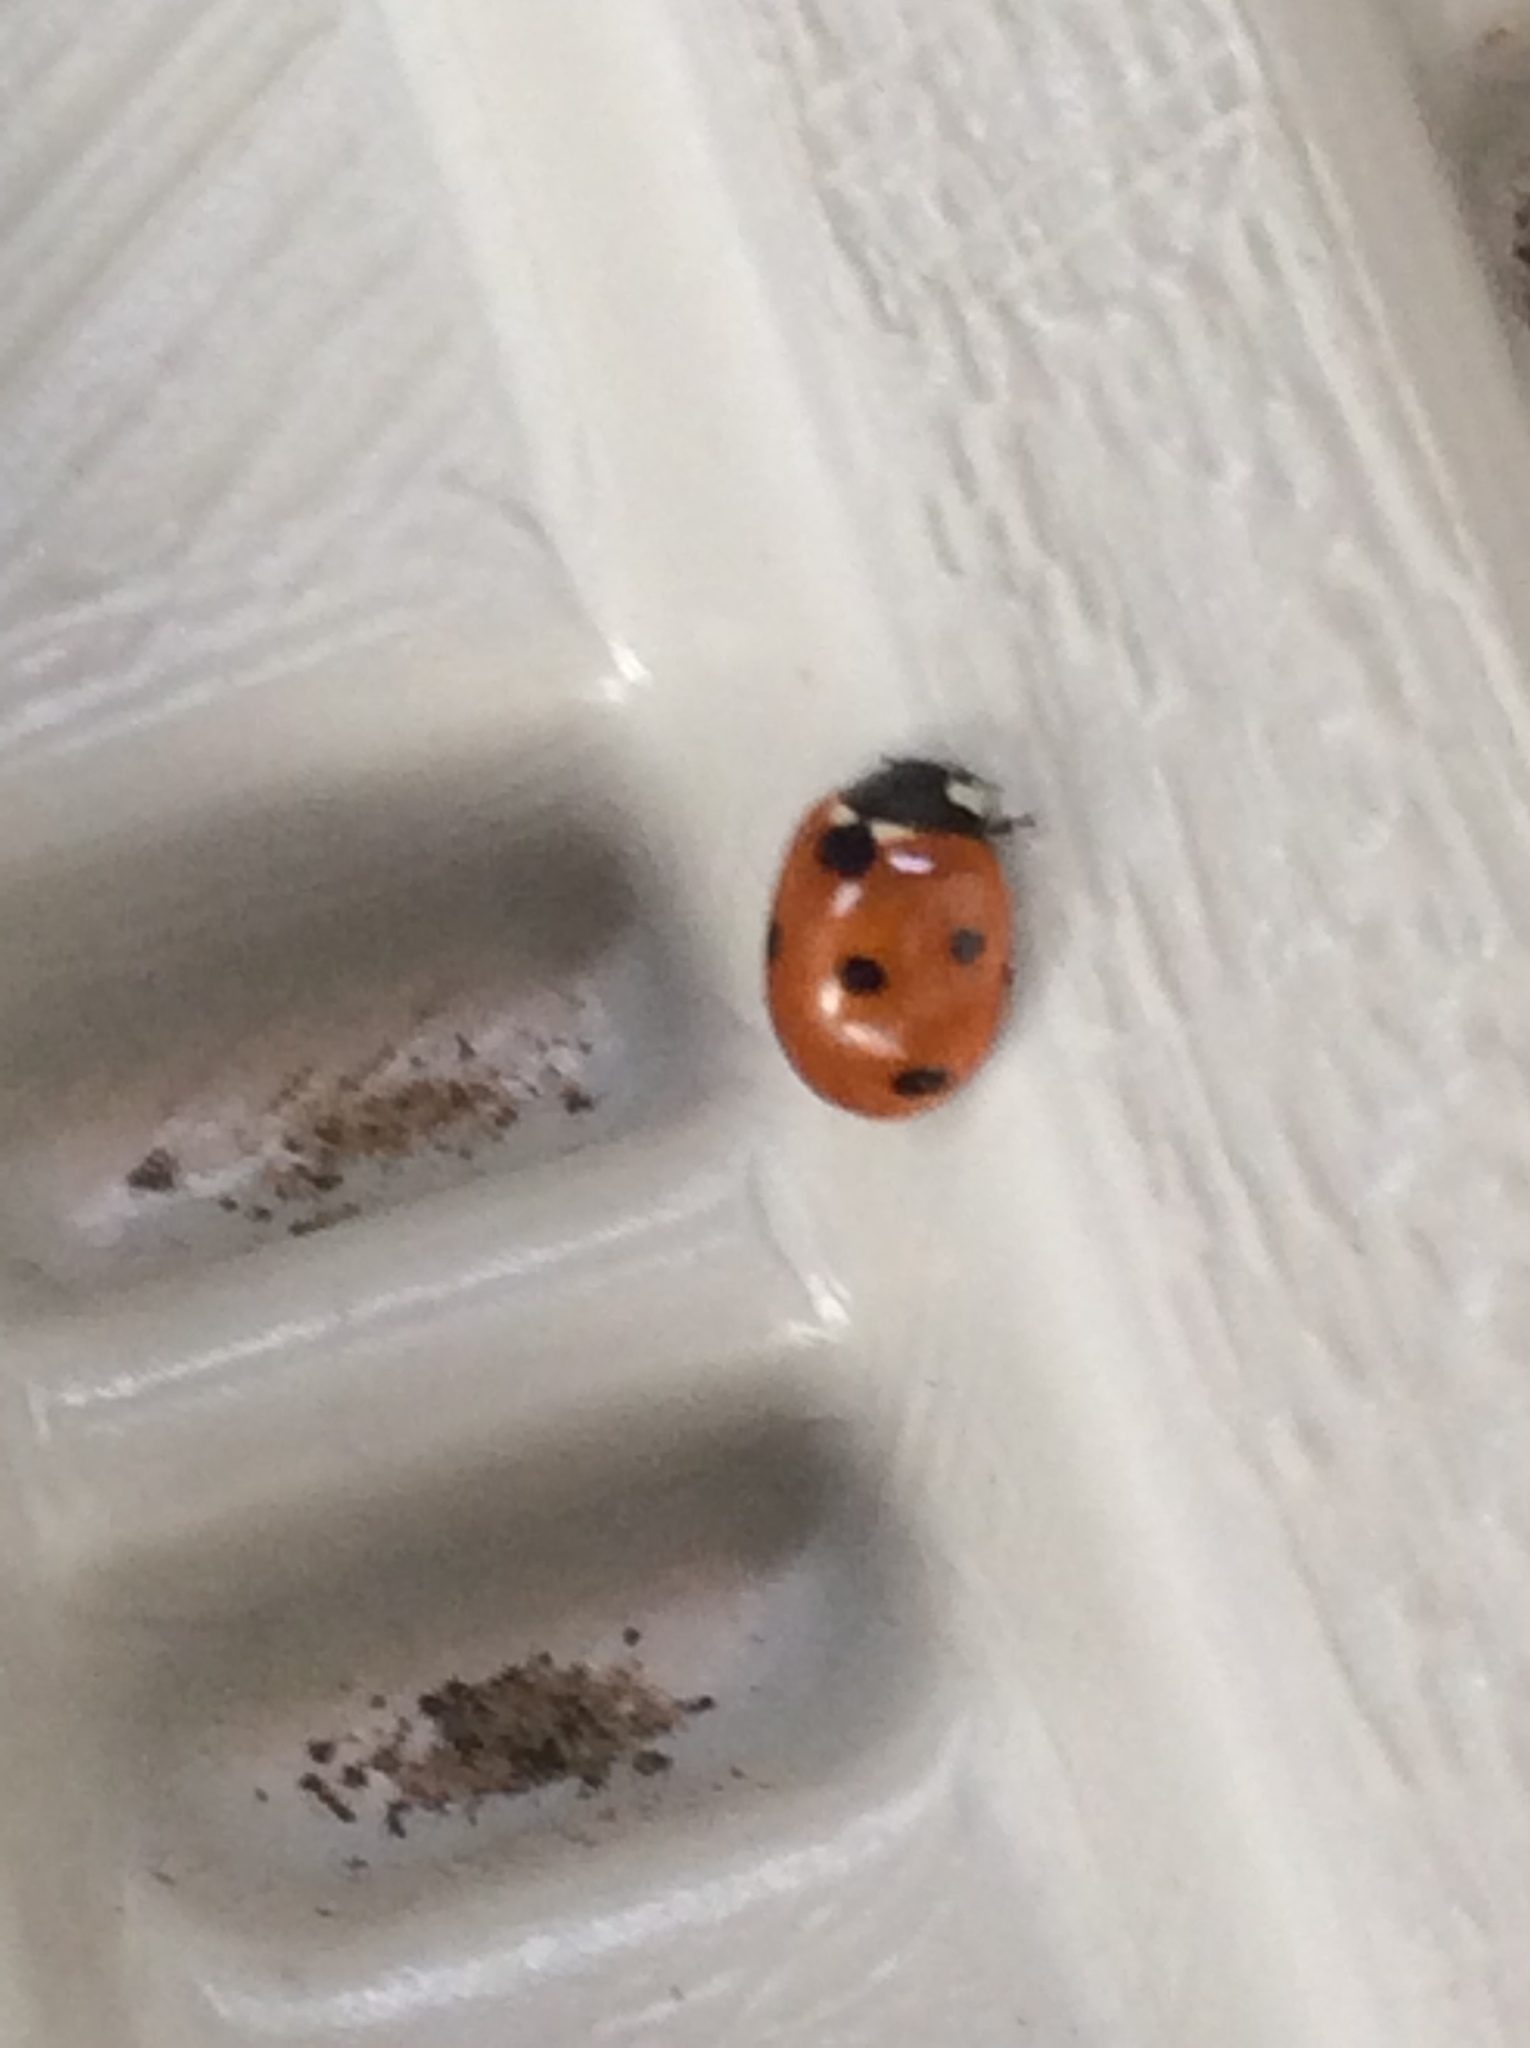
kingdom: Animalia
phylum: Arthropoda
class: Insecta
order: Coleoptera
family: Coccinellidae
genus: Coccinella
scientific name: Coccinella septempunctata
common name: Sevenspotted lady beetle
